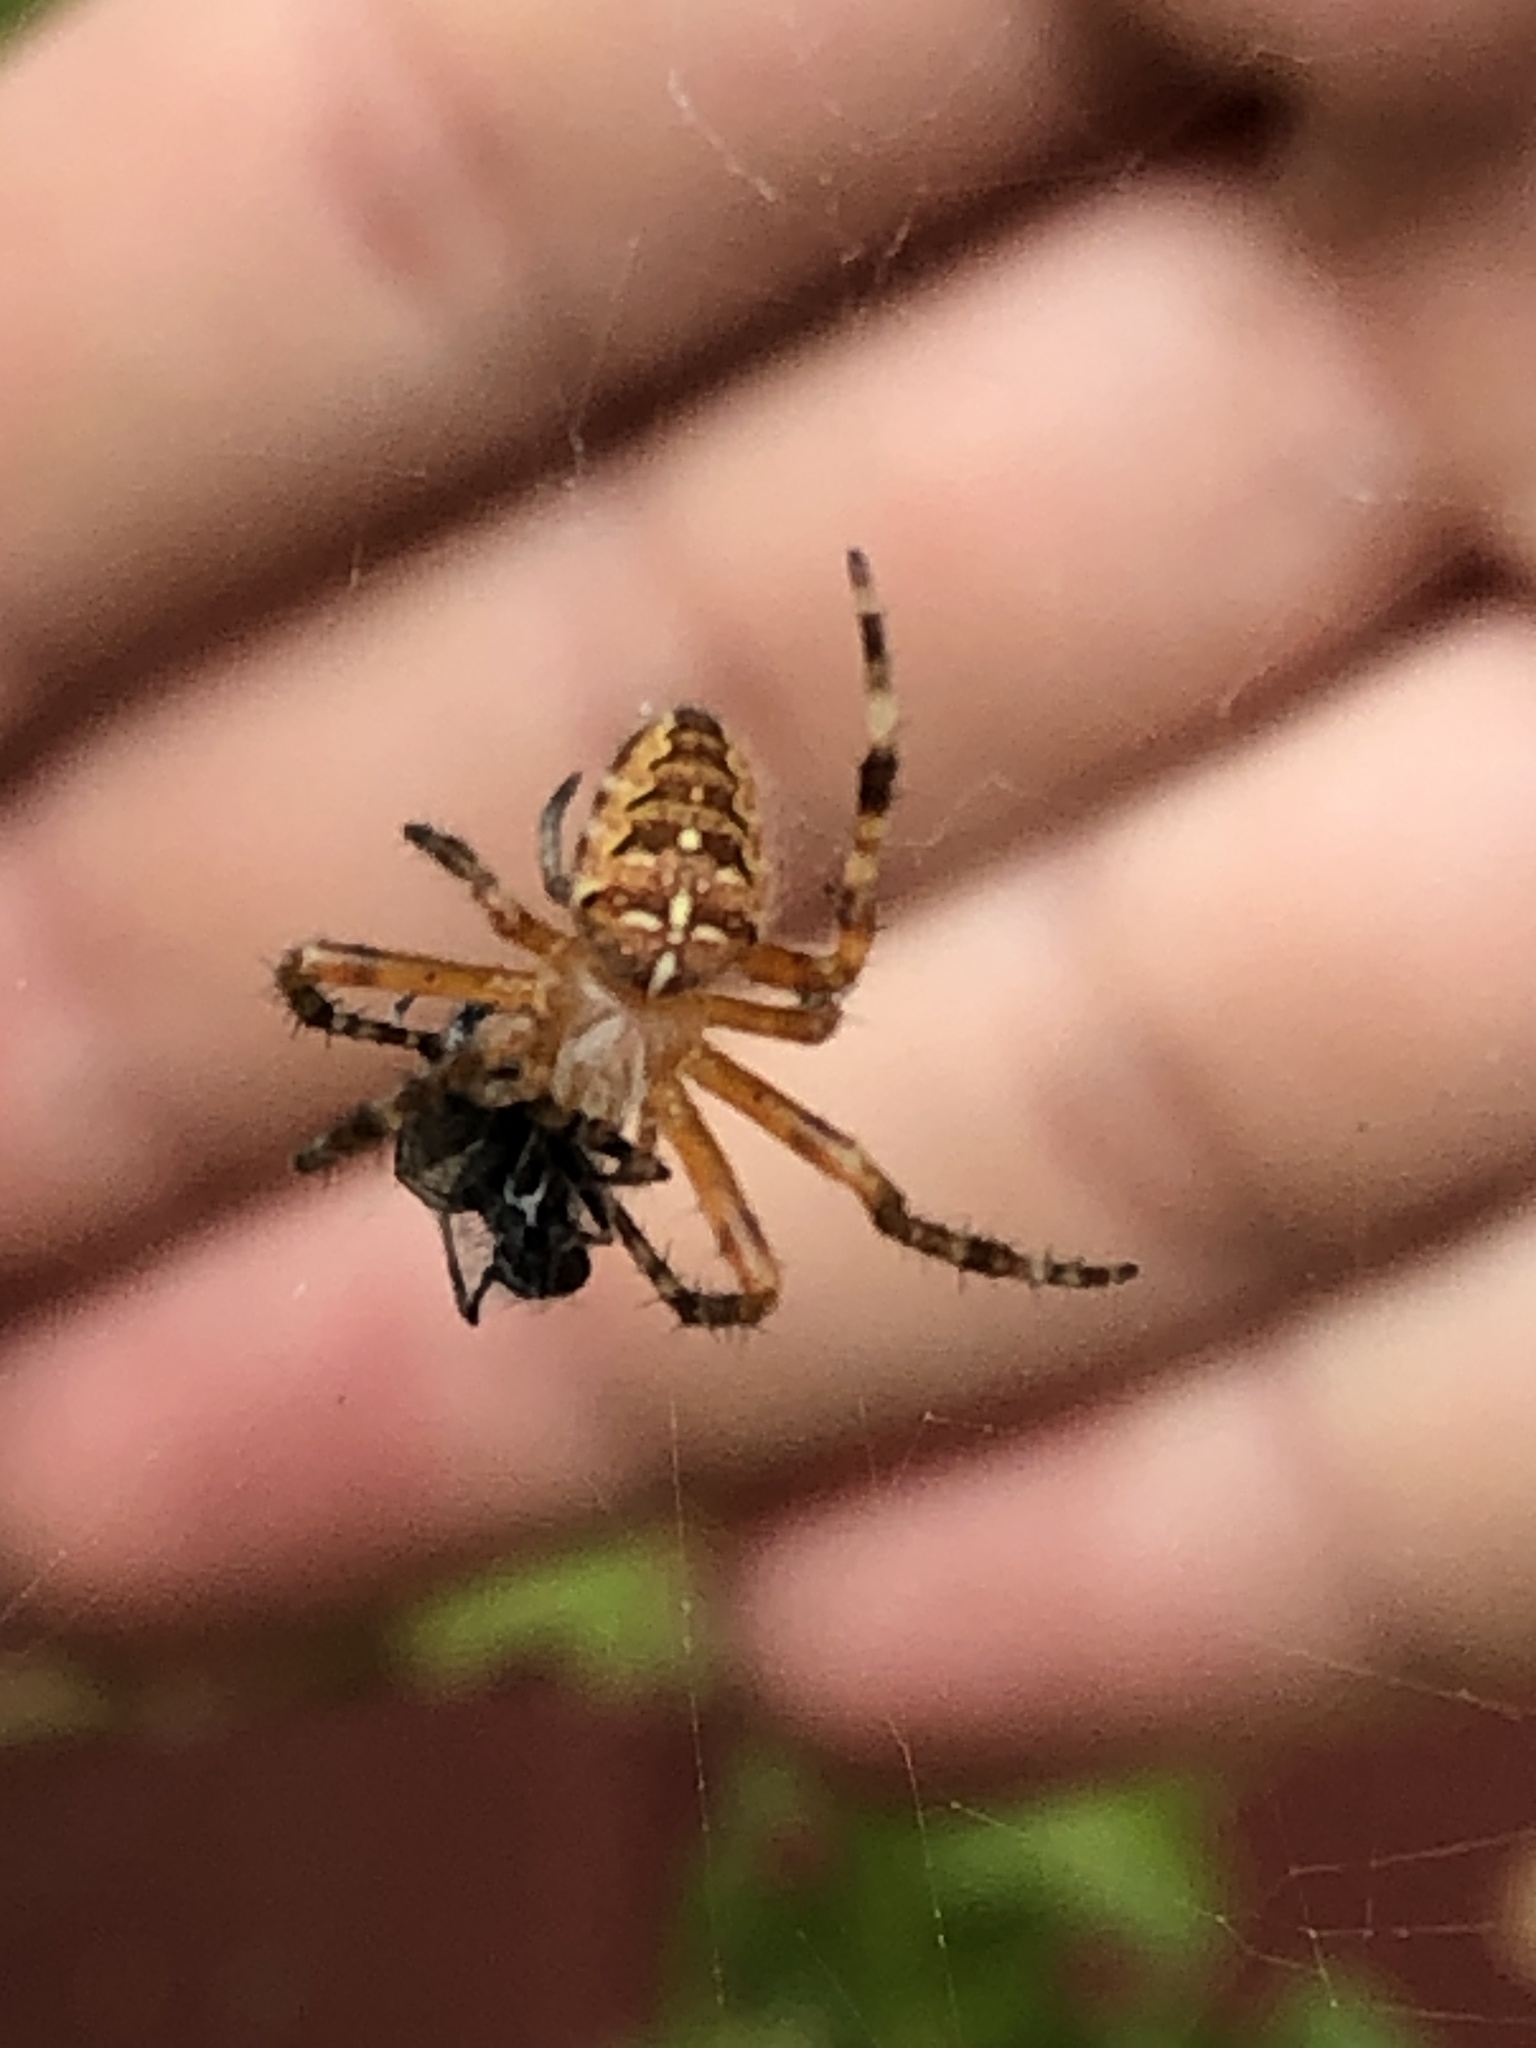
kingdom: Animalia
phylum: Arthropoda
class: Arachnida
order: Araneae
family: Araneidae
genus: Araneus
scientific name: Araneus diadematus
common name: Cross orbweaver
